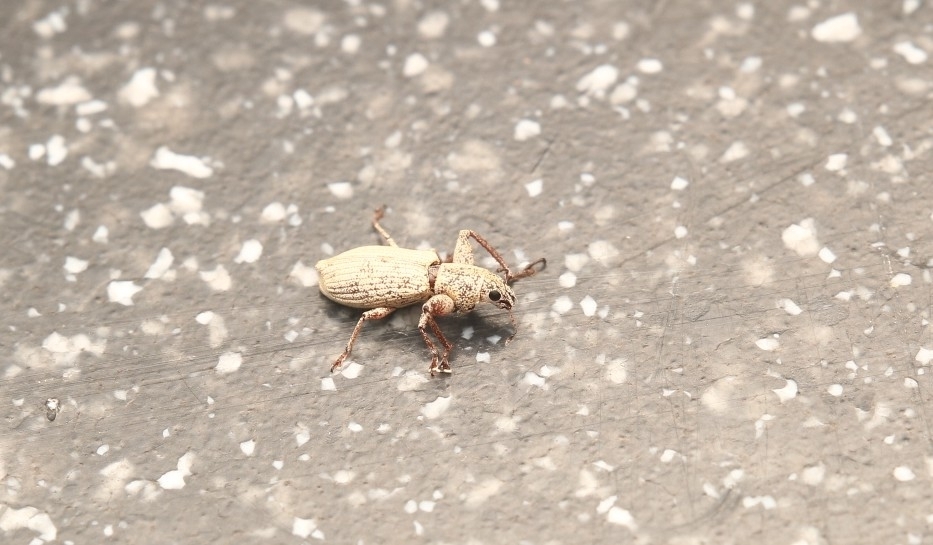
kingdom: Animalia
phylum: Arthropoda
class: Insecta
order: Coleoptera
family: Curculionidae
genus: Pandeleteius
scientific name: Pandeleteius nodifer
